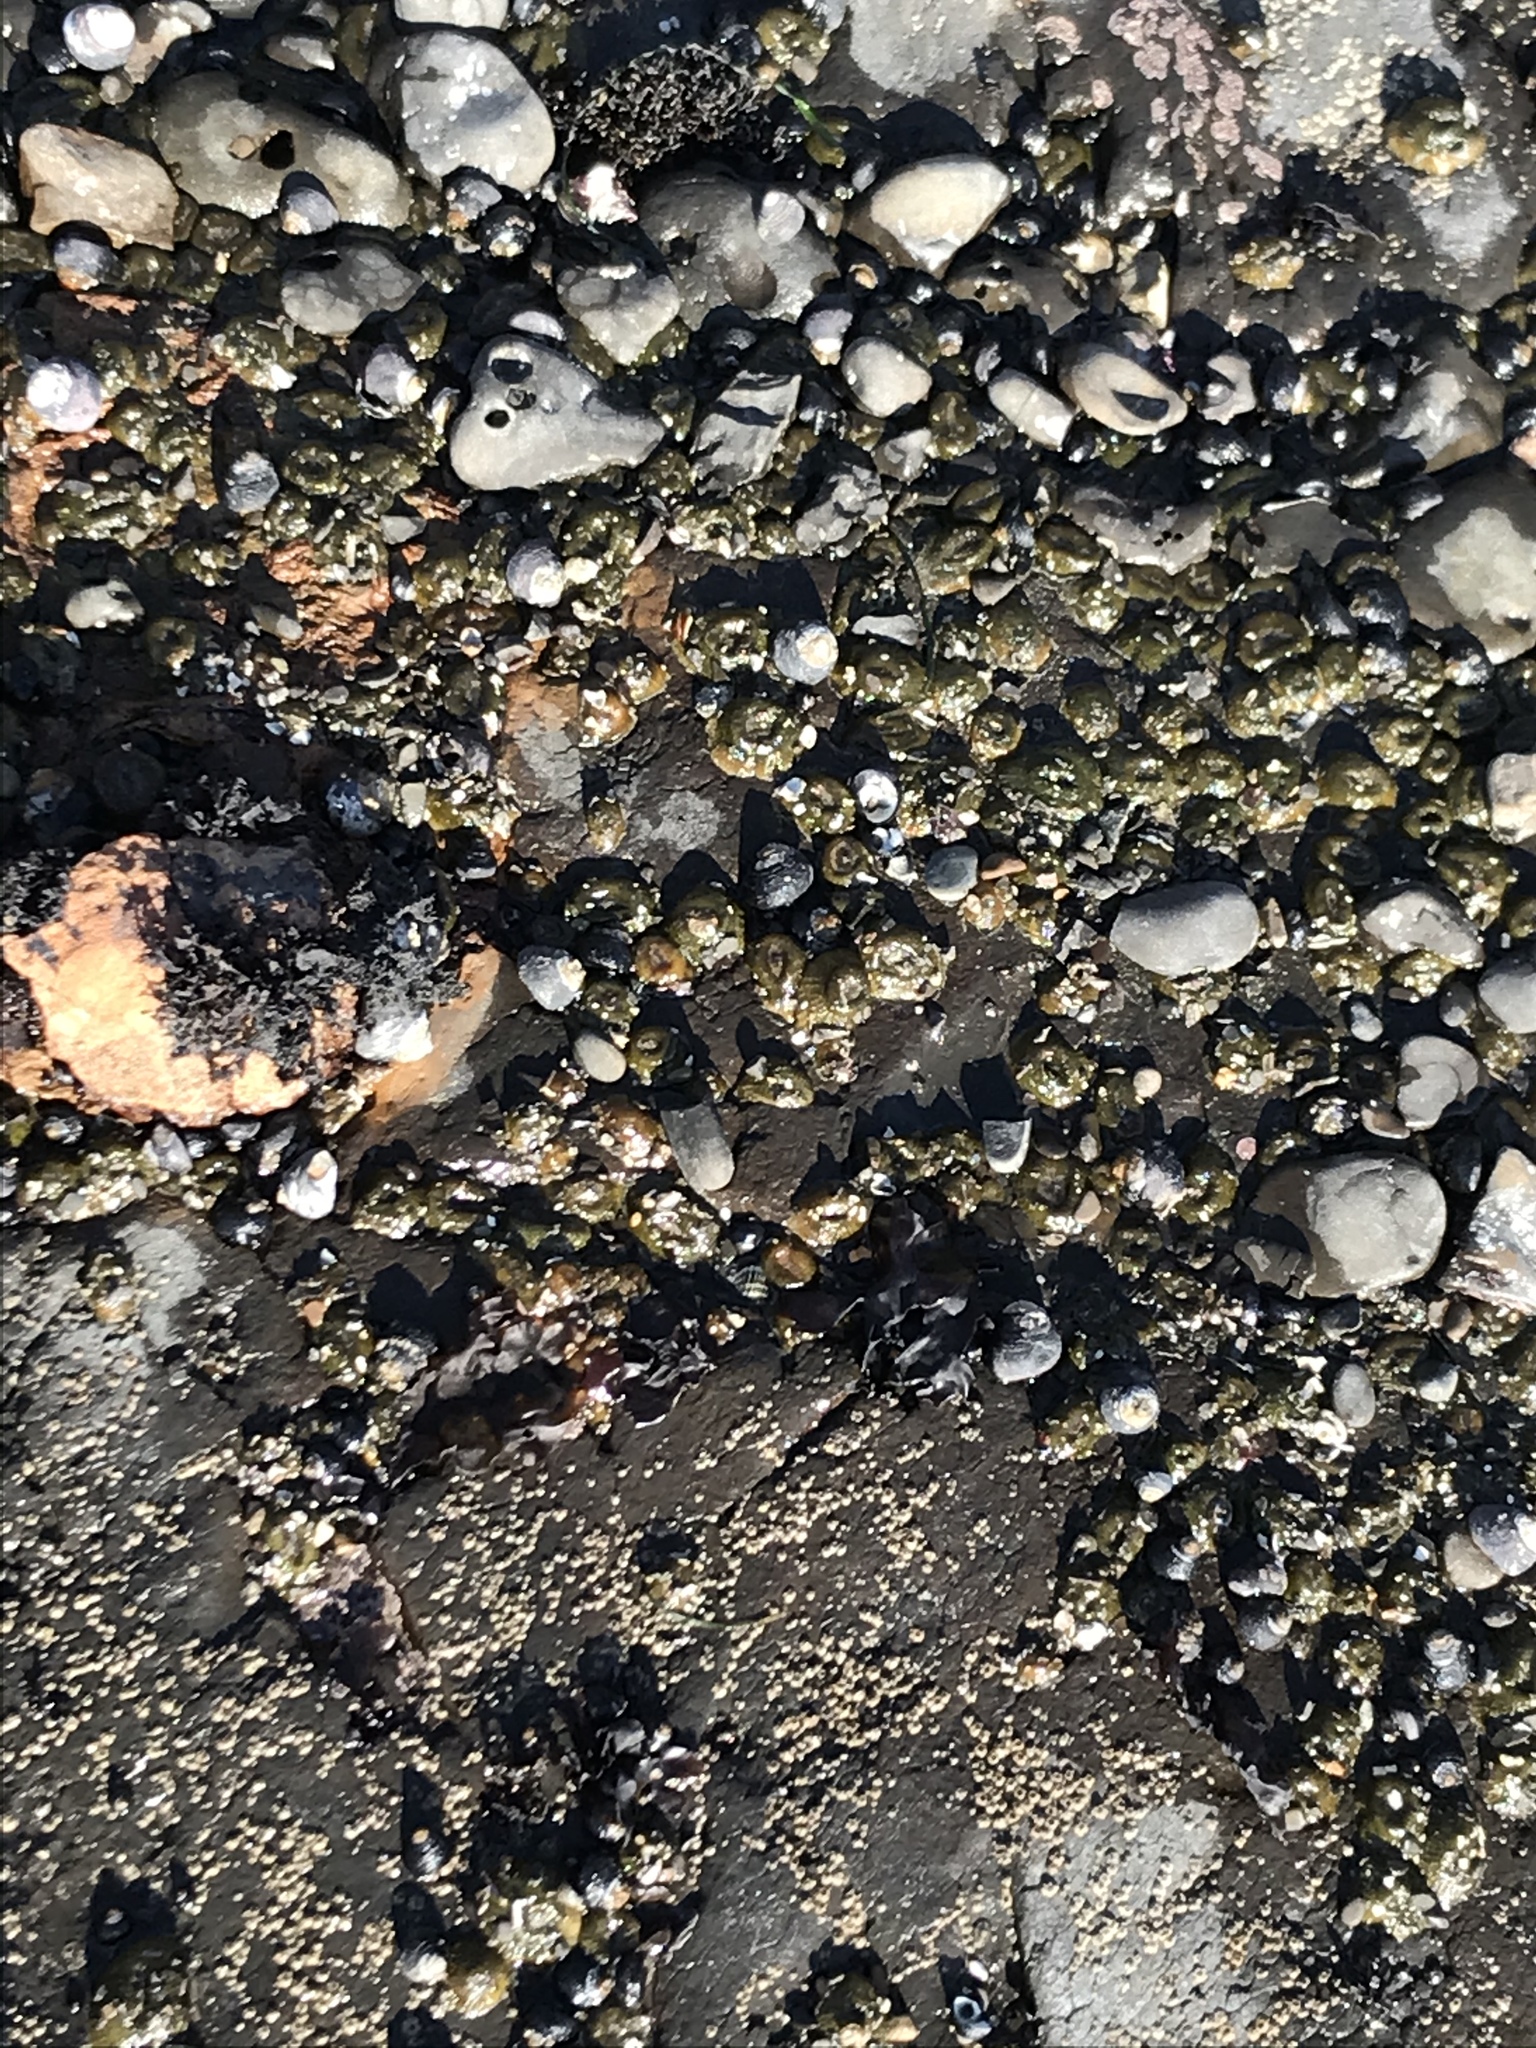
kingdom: Animalia
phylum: Mollusca
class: Gastropoda
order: Trochida
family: Tegulidae
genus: Tegula
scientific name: Tegula funebralis
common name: Black tegula
